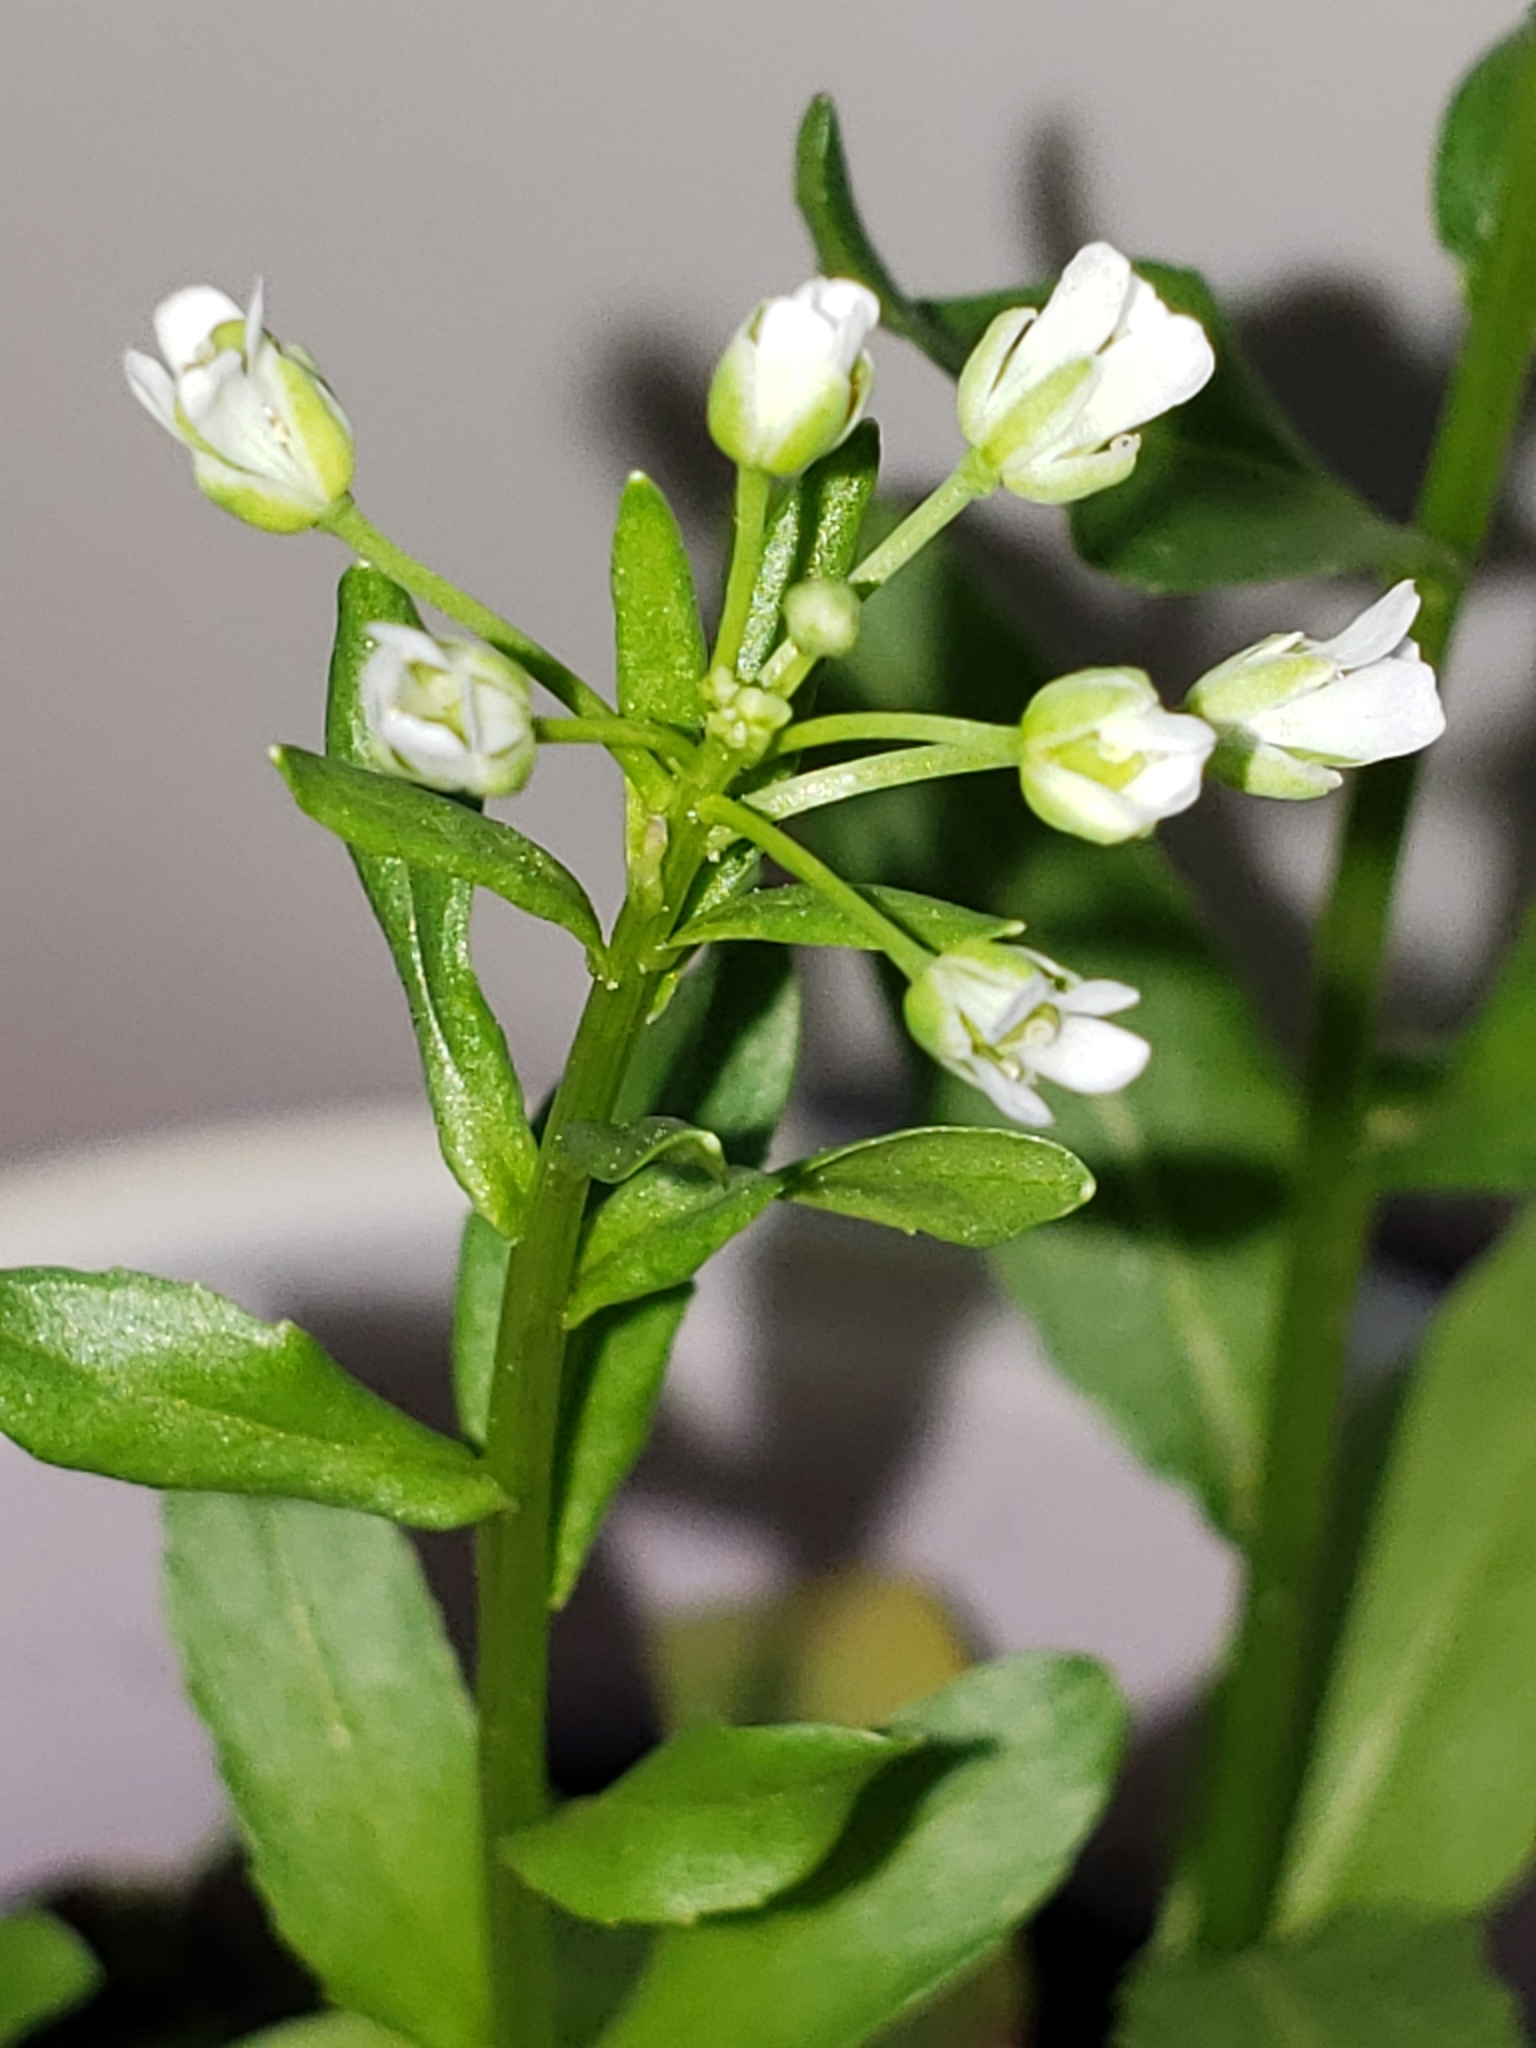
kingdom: Plantae
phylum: Tracheophyta
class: Magnoliopsida
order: Brassicales
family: Brassicaceae
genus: Thlaspi
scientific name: Thlaspi arvense
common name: Field pennycress
